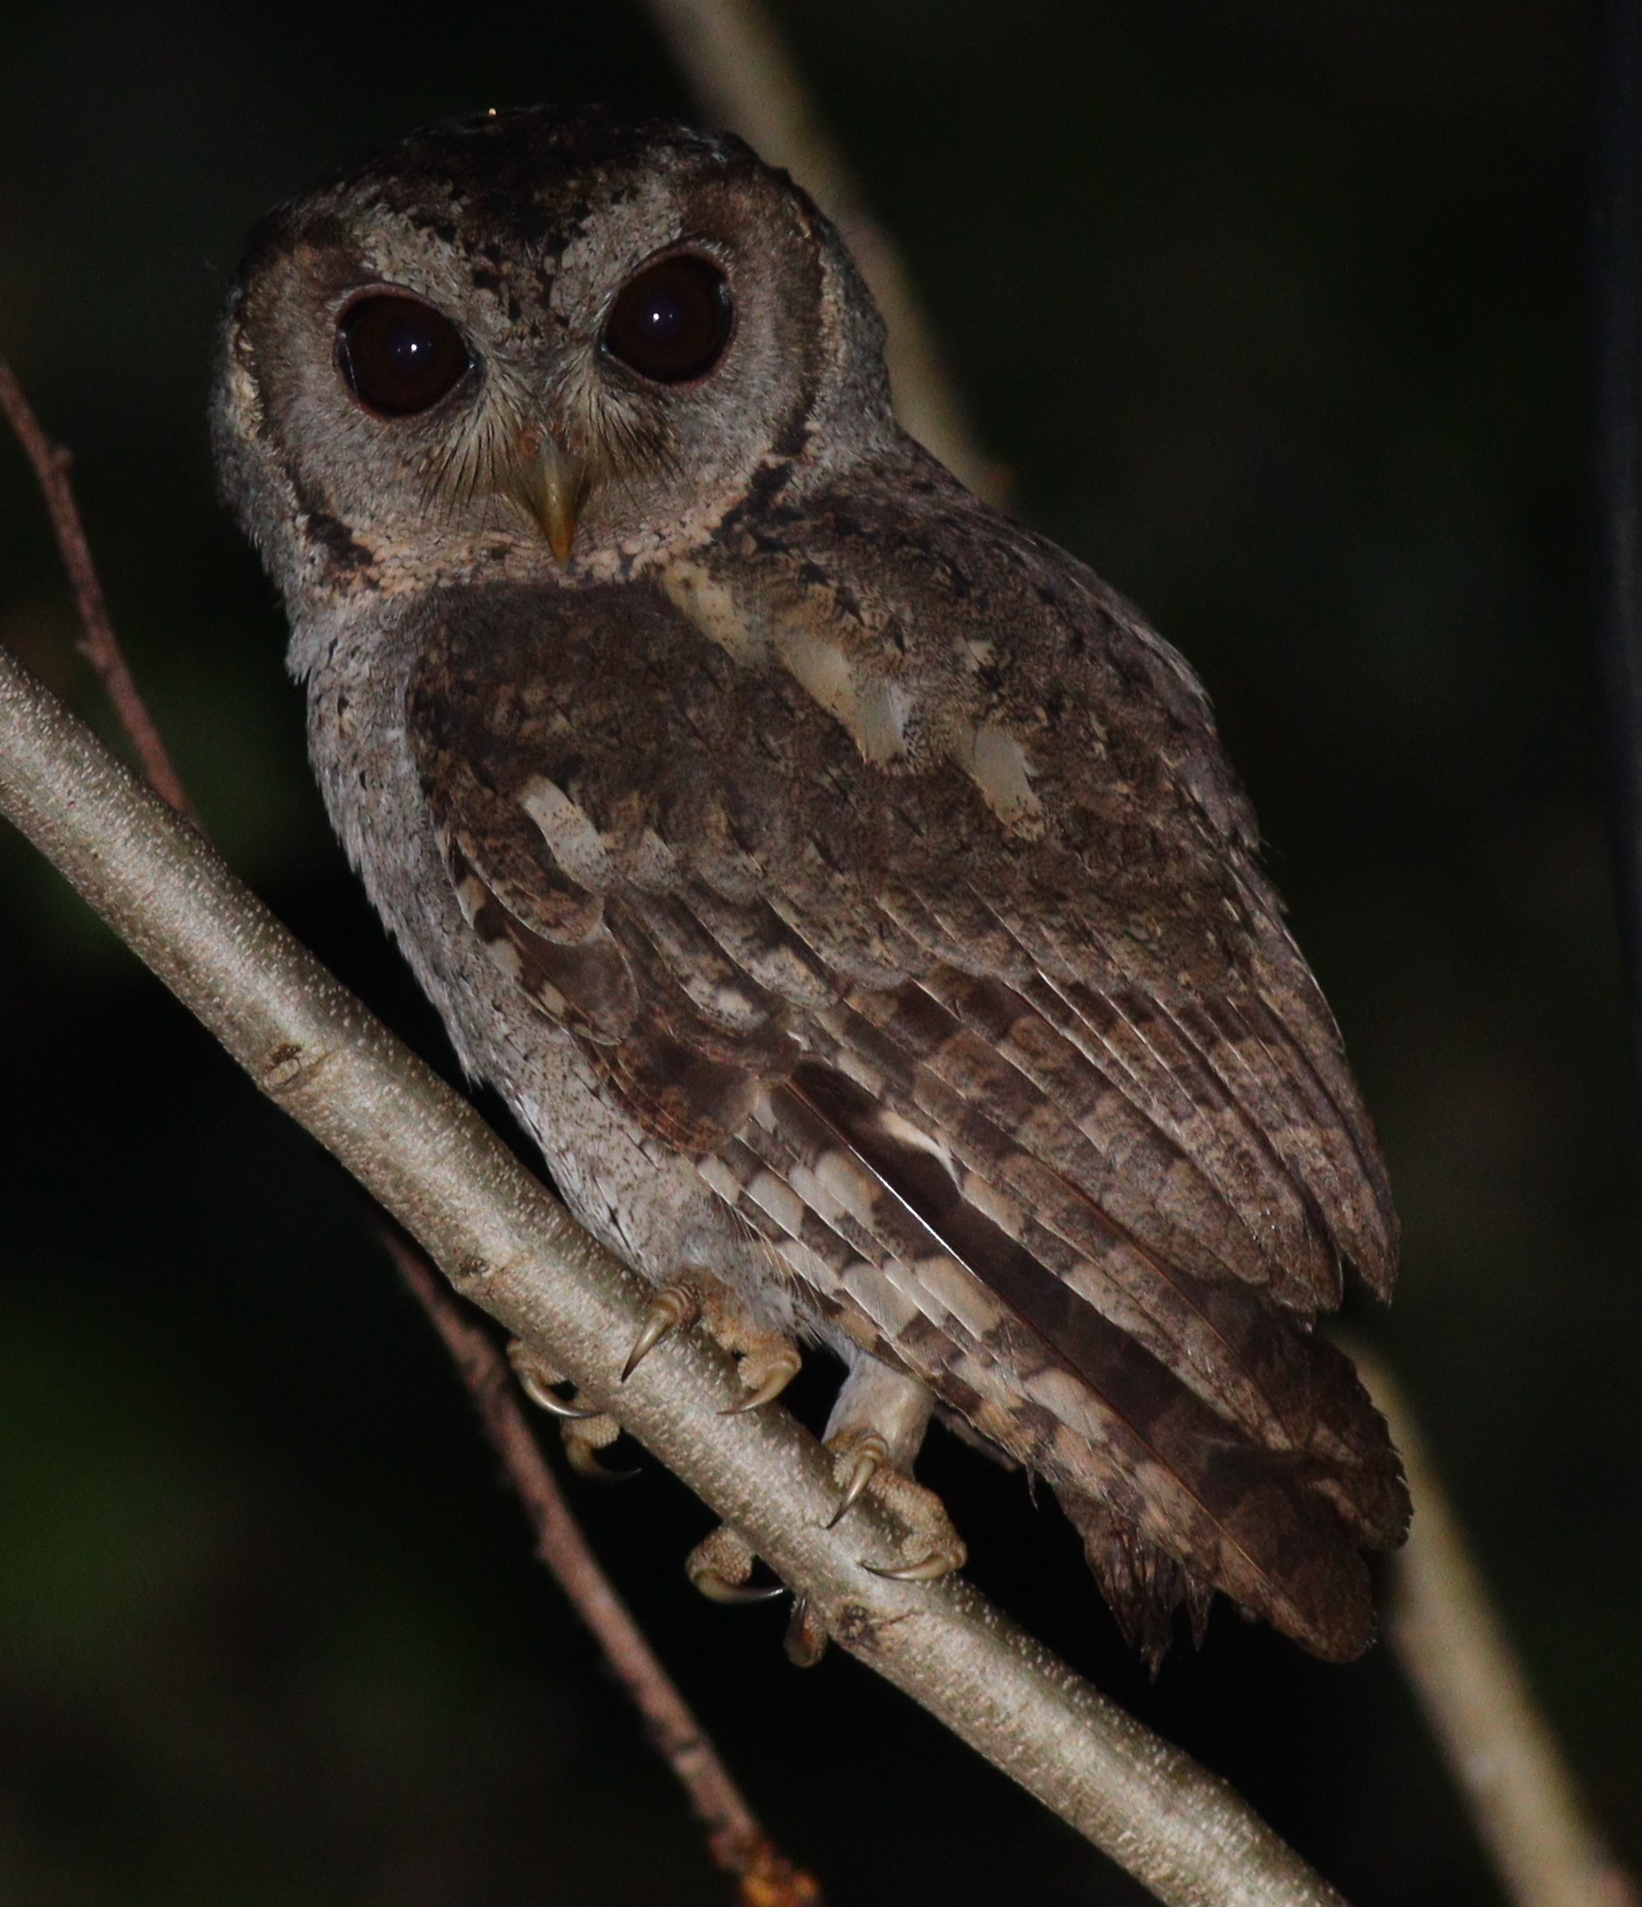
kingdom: Animalia
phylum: Chordata
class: Aves
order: Strigiformes
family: Strigidae
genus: Otus
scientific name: Otus lettia
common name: Collared scops owl
